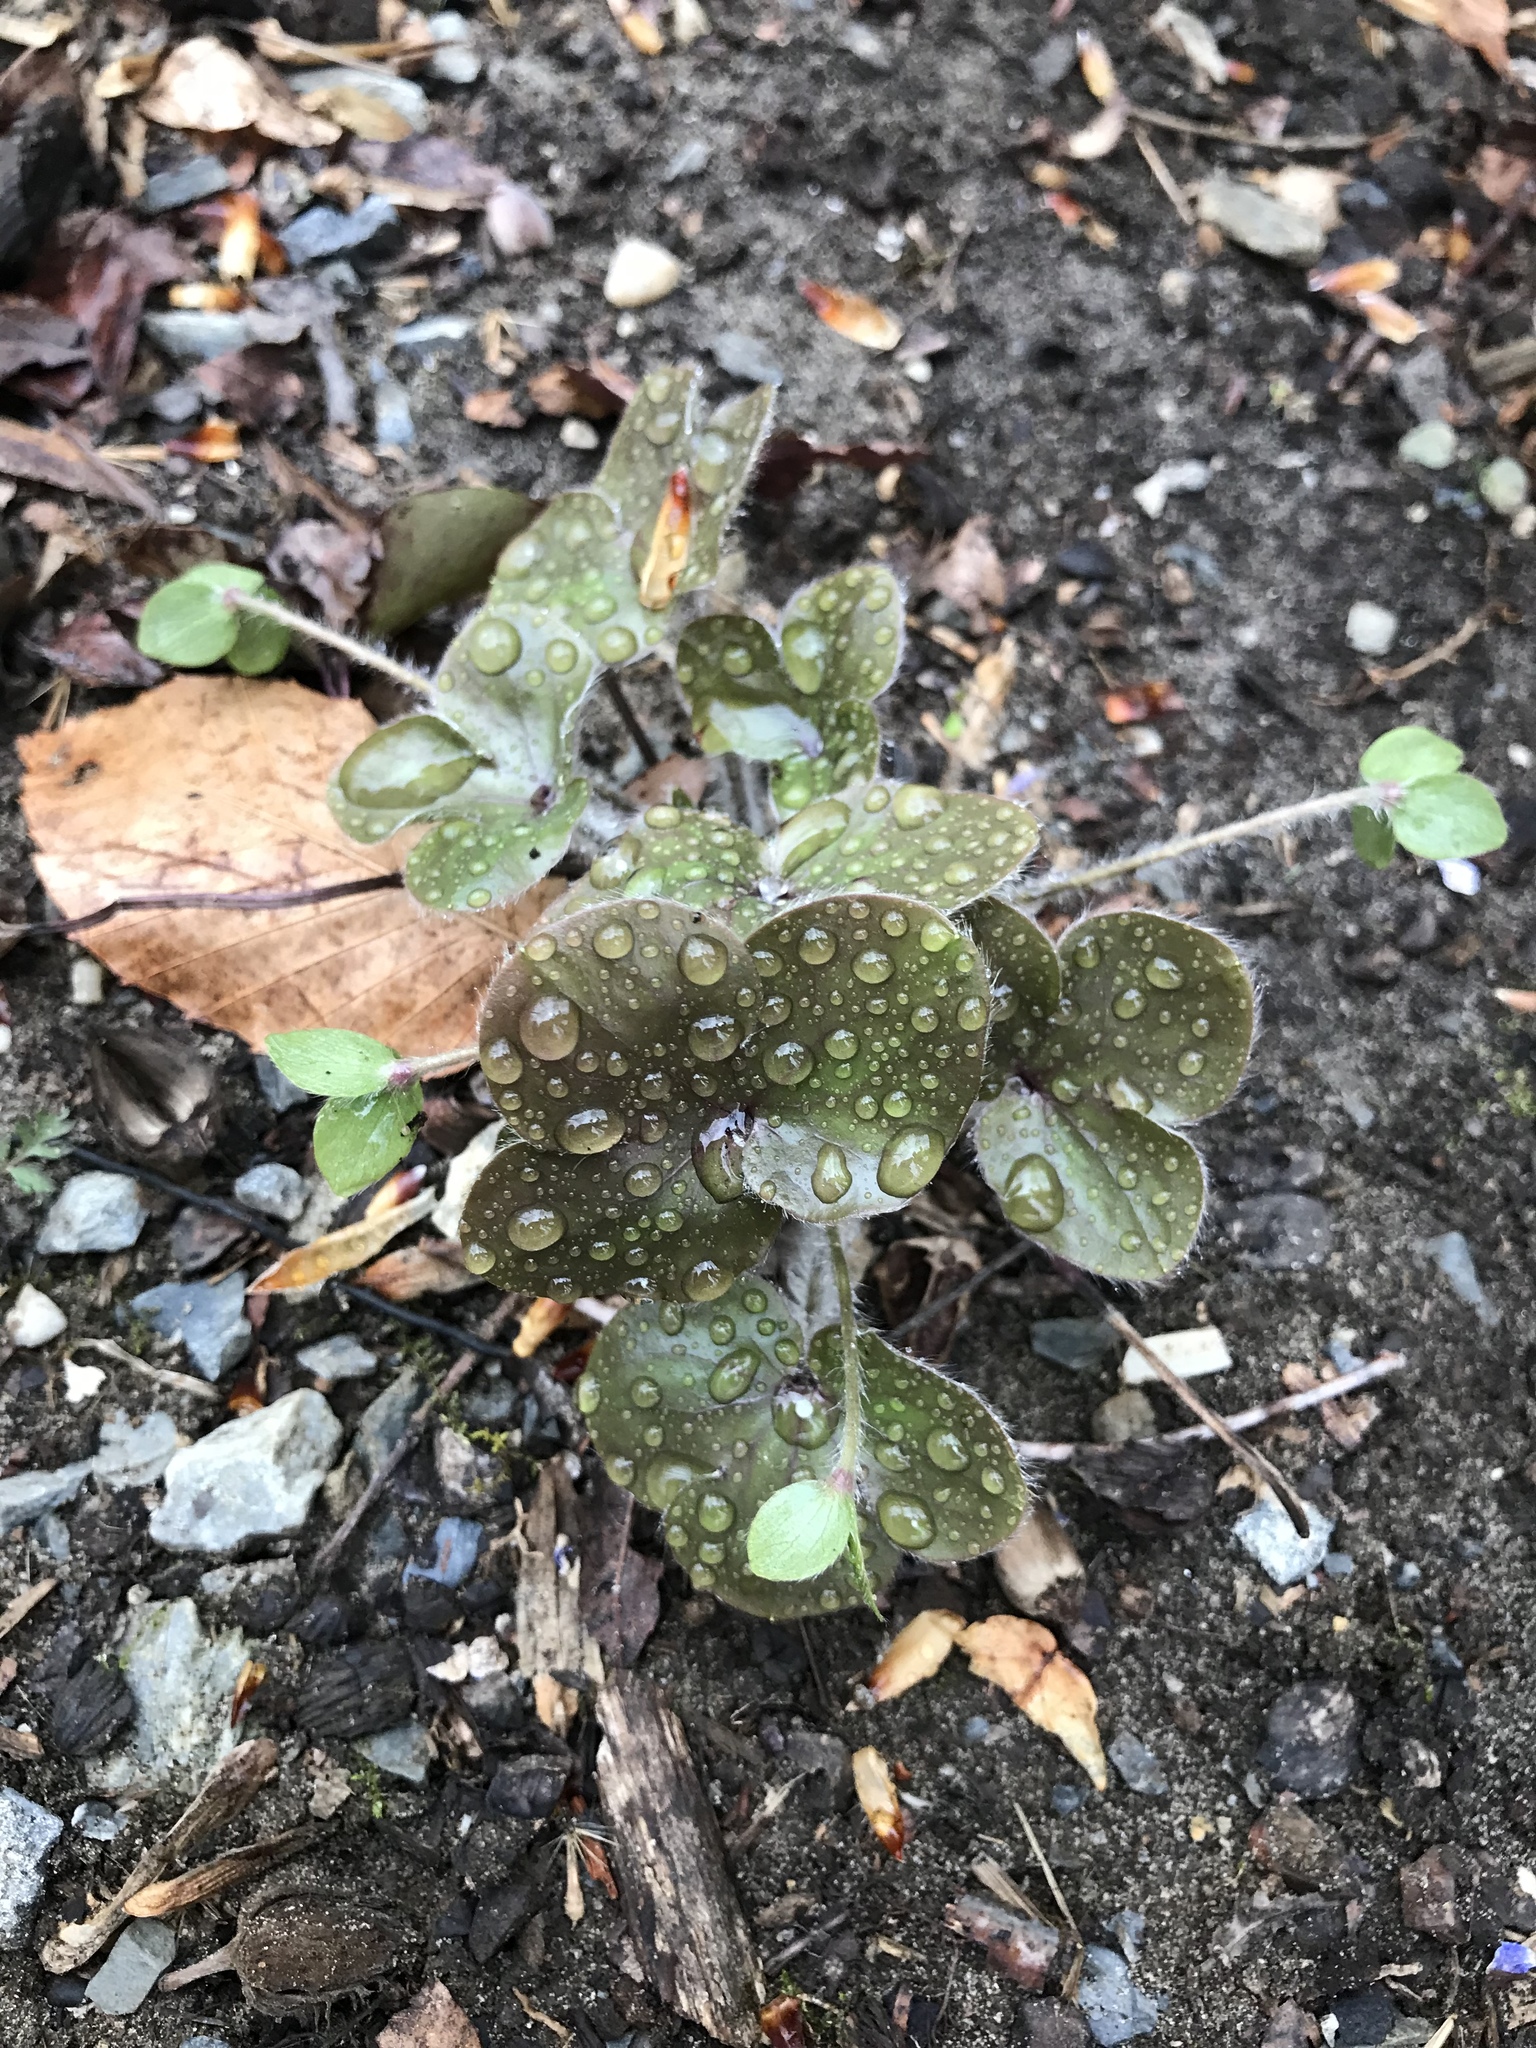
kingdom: Plantae
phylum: Tracheophyta
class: Magnoliopsida
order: Ranunculales
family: Ranunculaceae
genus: Hepatica
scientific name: Hepatica americana
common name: American hepatica
